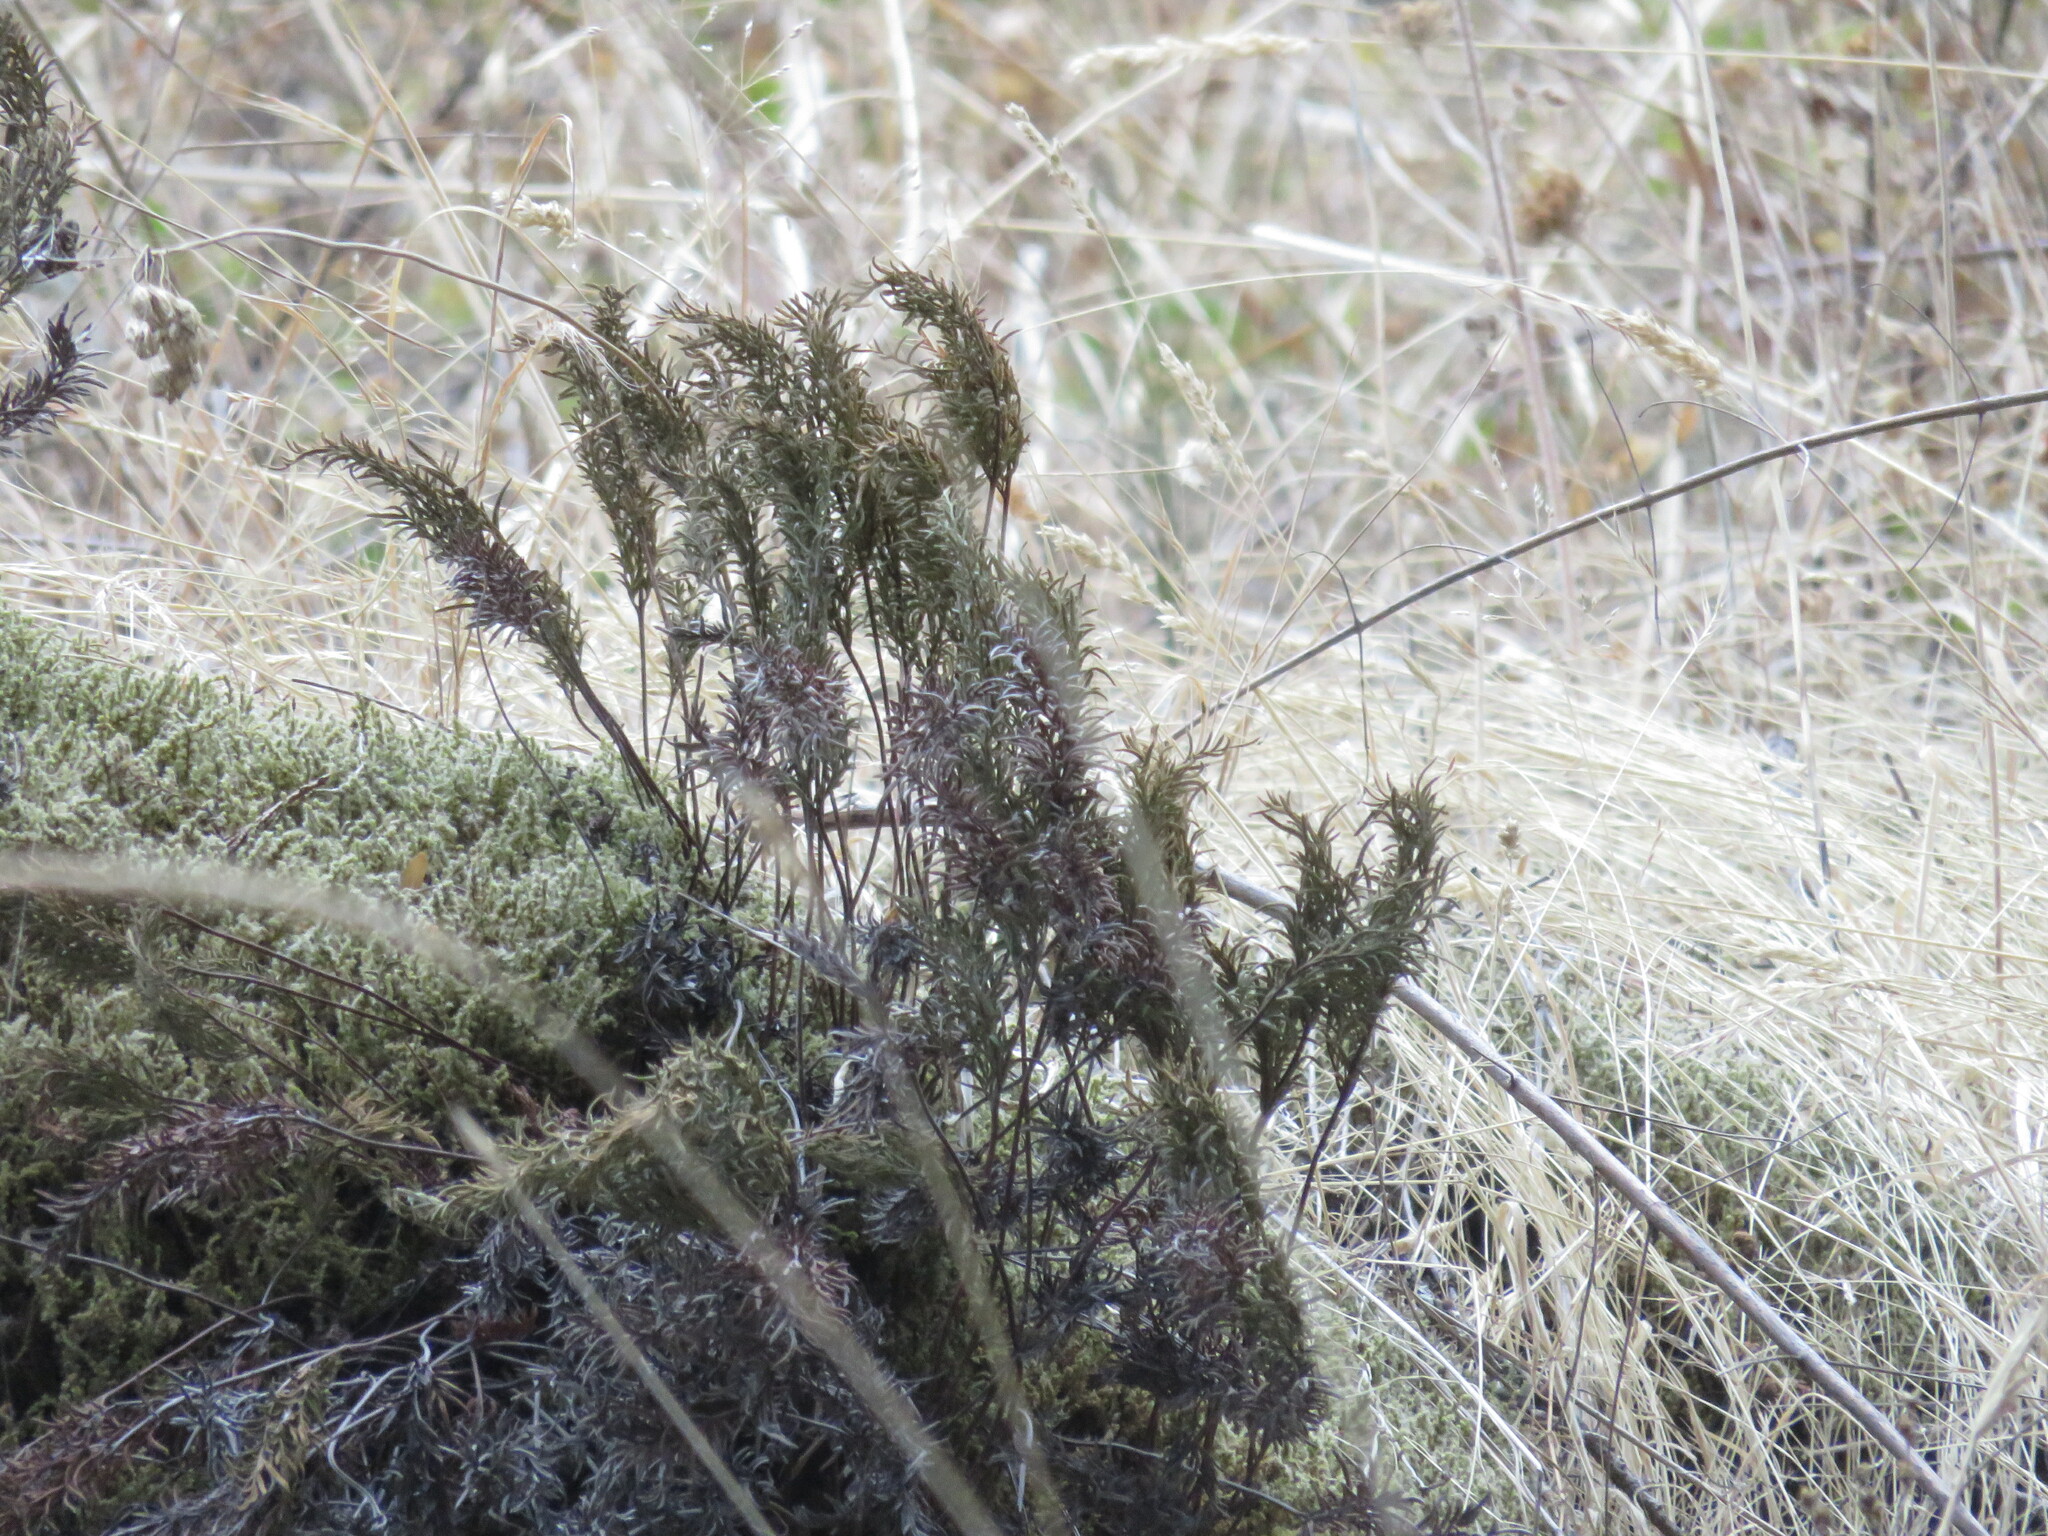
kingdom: Plantae
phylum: Tracheophyta
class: Polypodiopsida
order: Polypodiales
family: Pteridaceae
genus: Aspidotis
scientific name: Aspidotis densa
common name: Indian's dream
